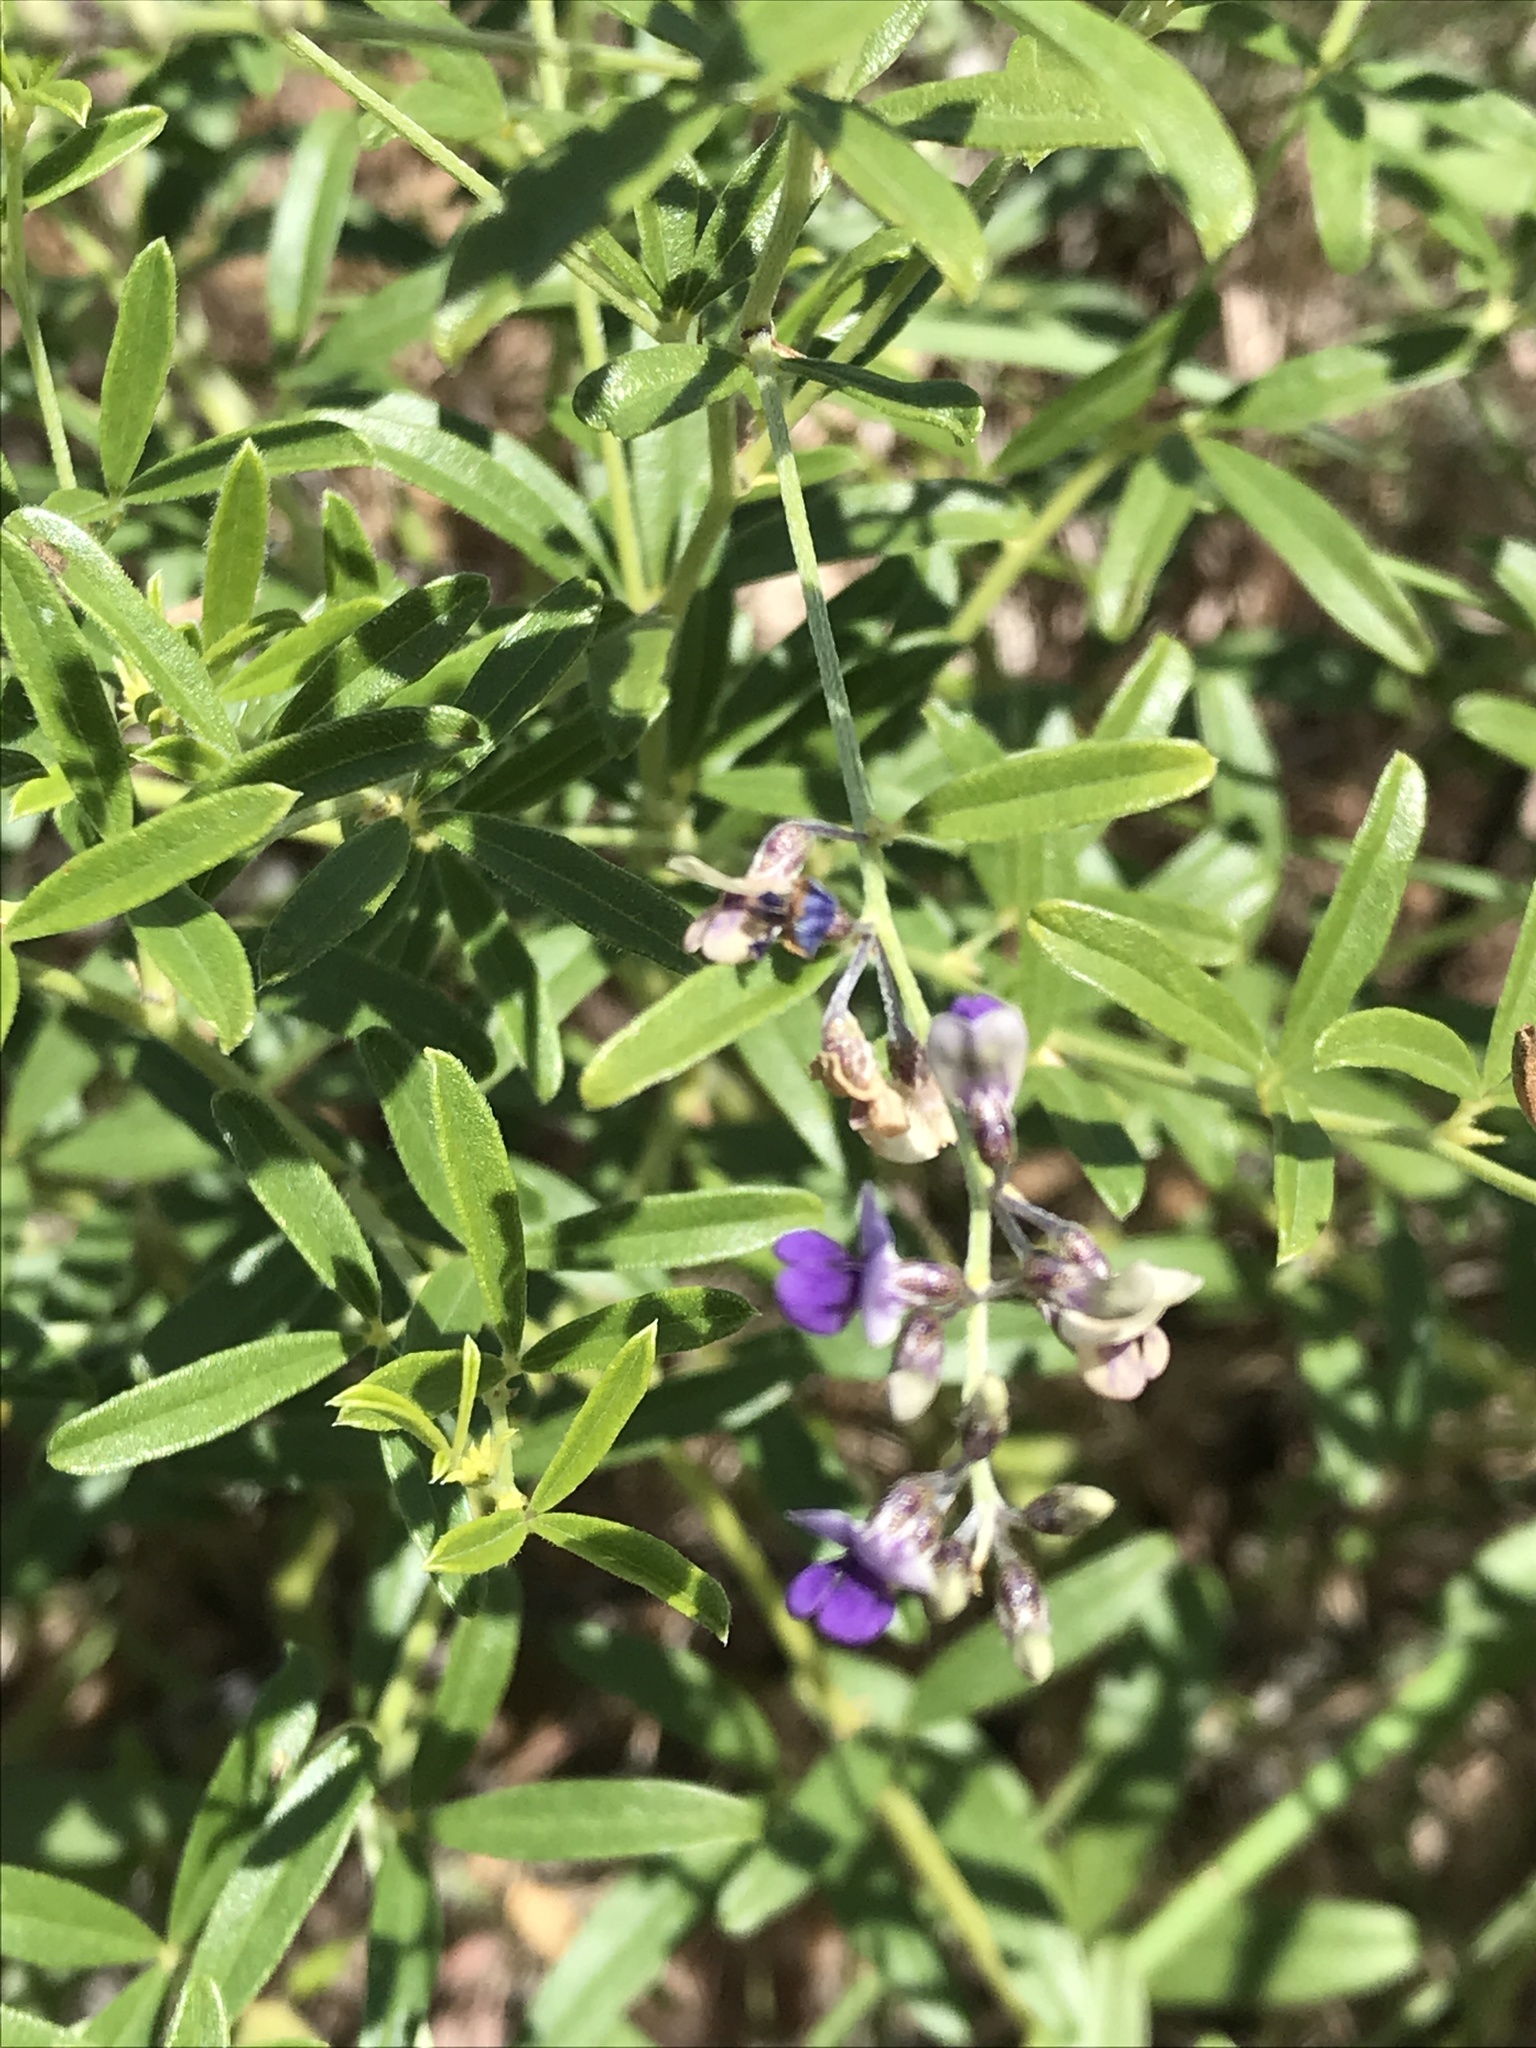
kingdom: Plantae
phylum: Tracheophyta
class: Magnoliopsida
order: Fabales
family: Fabaceae
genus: Pediomelum
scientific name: Pediomelum tenuiflorum
